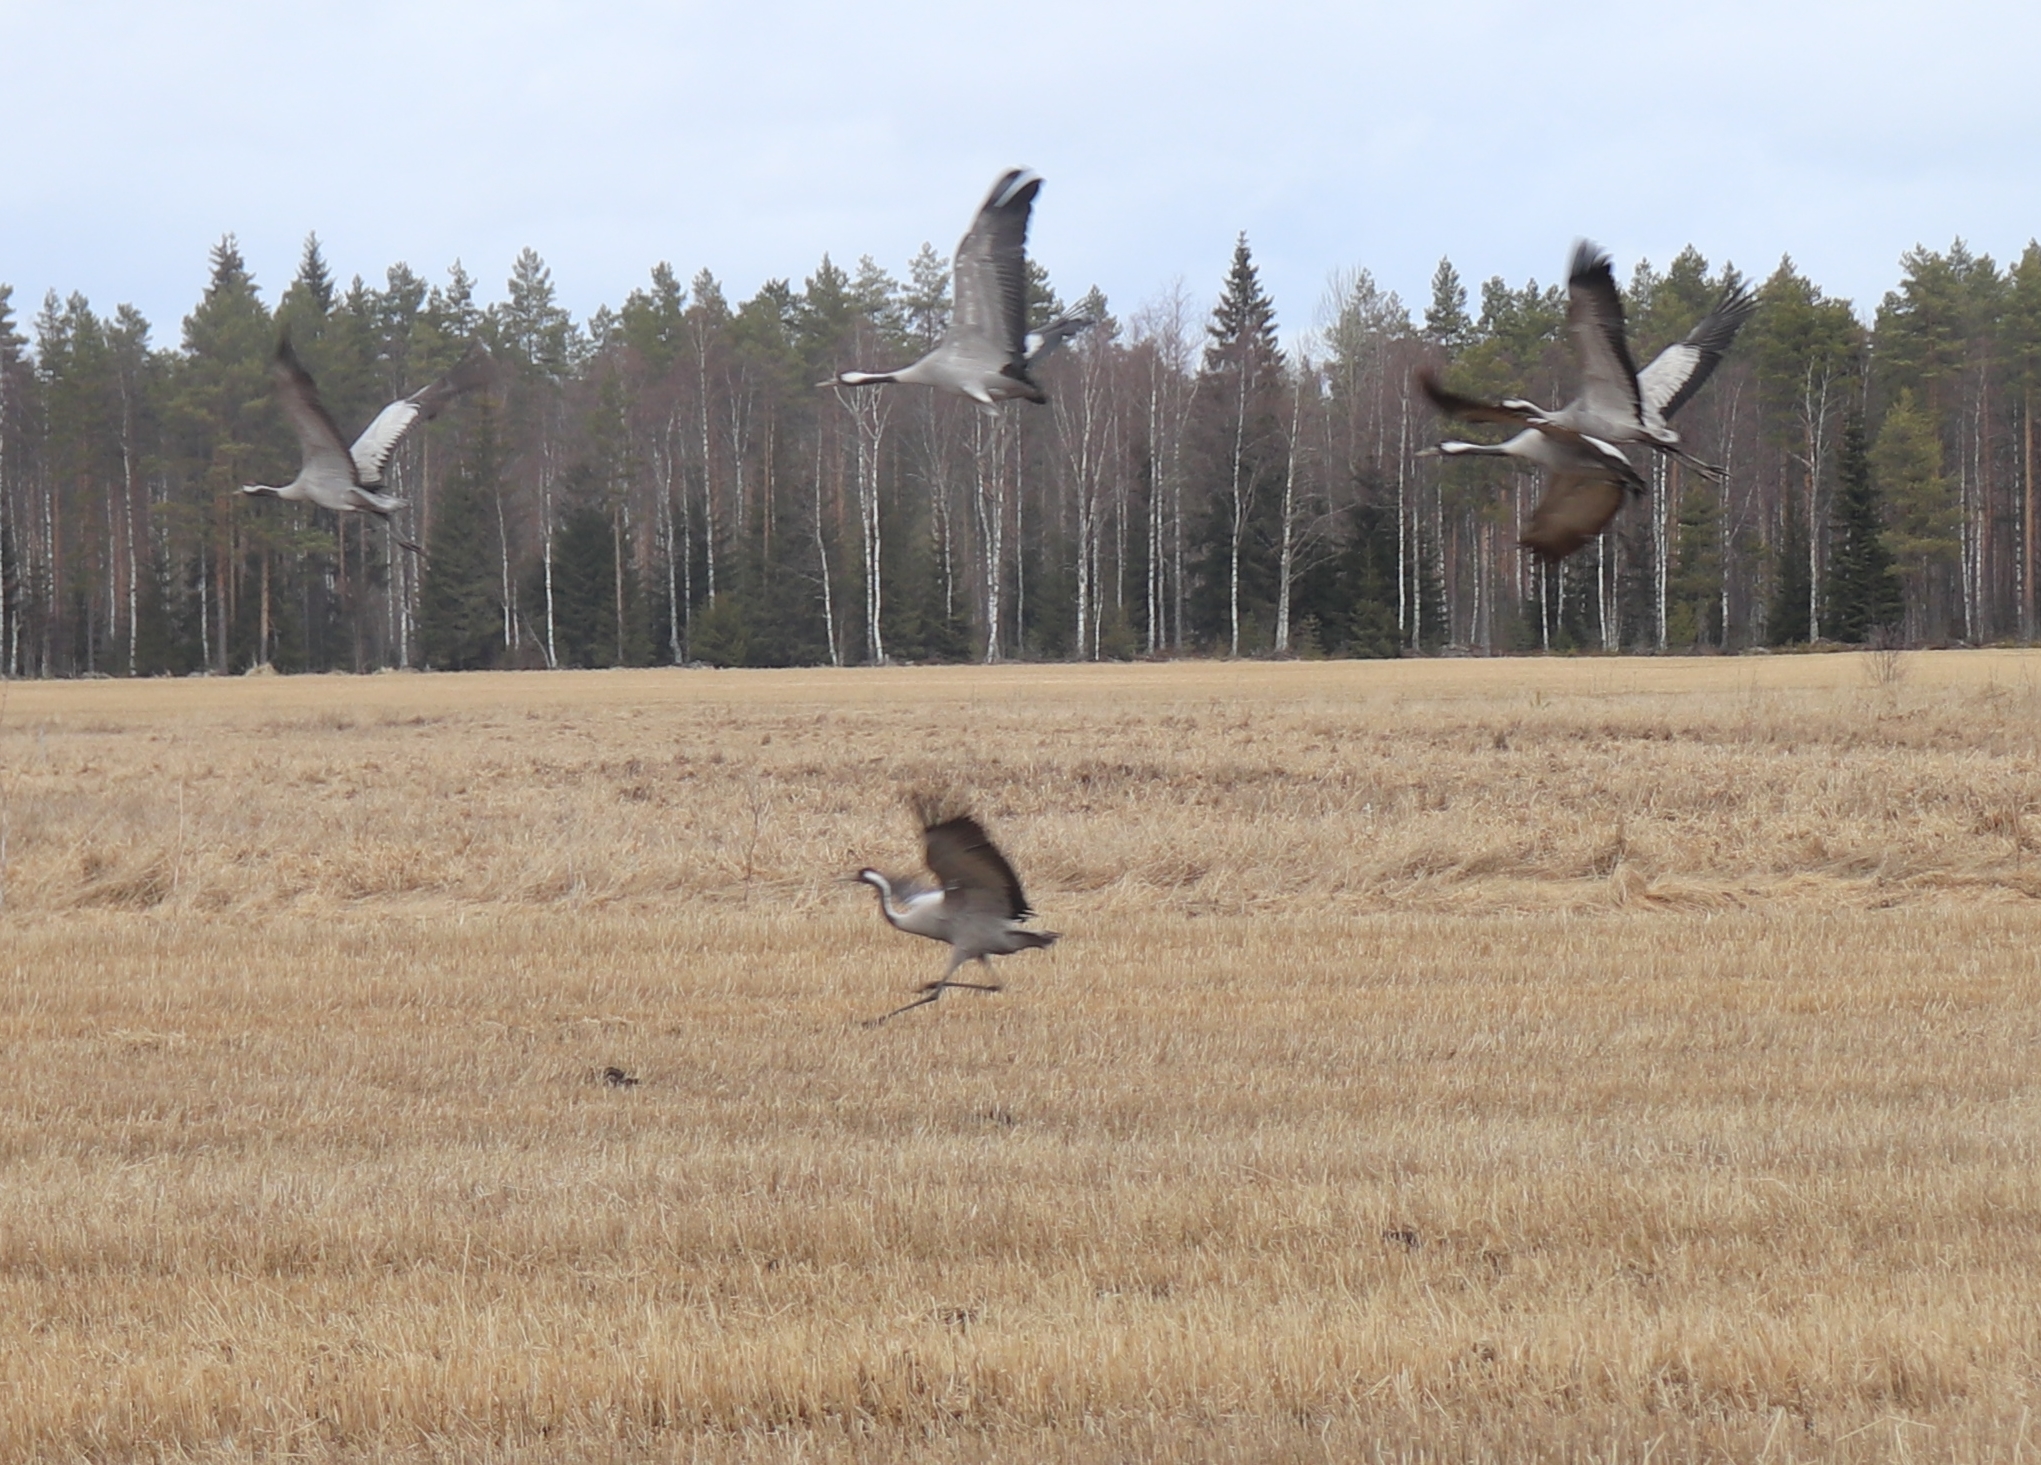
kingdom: Animalia
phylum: Chordata
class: Aves
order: Gruiformes
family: Gruidae
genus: Grus
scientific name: Grus grus
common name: Common crane
